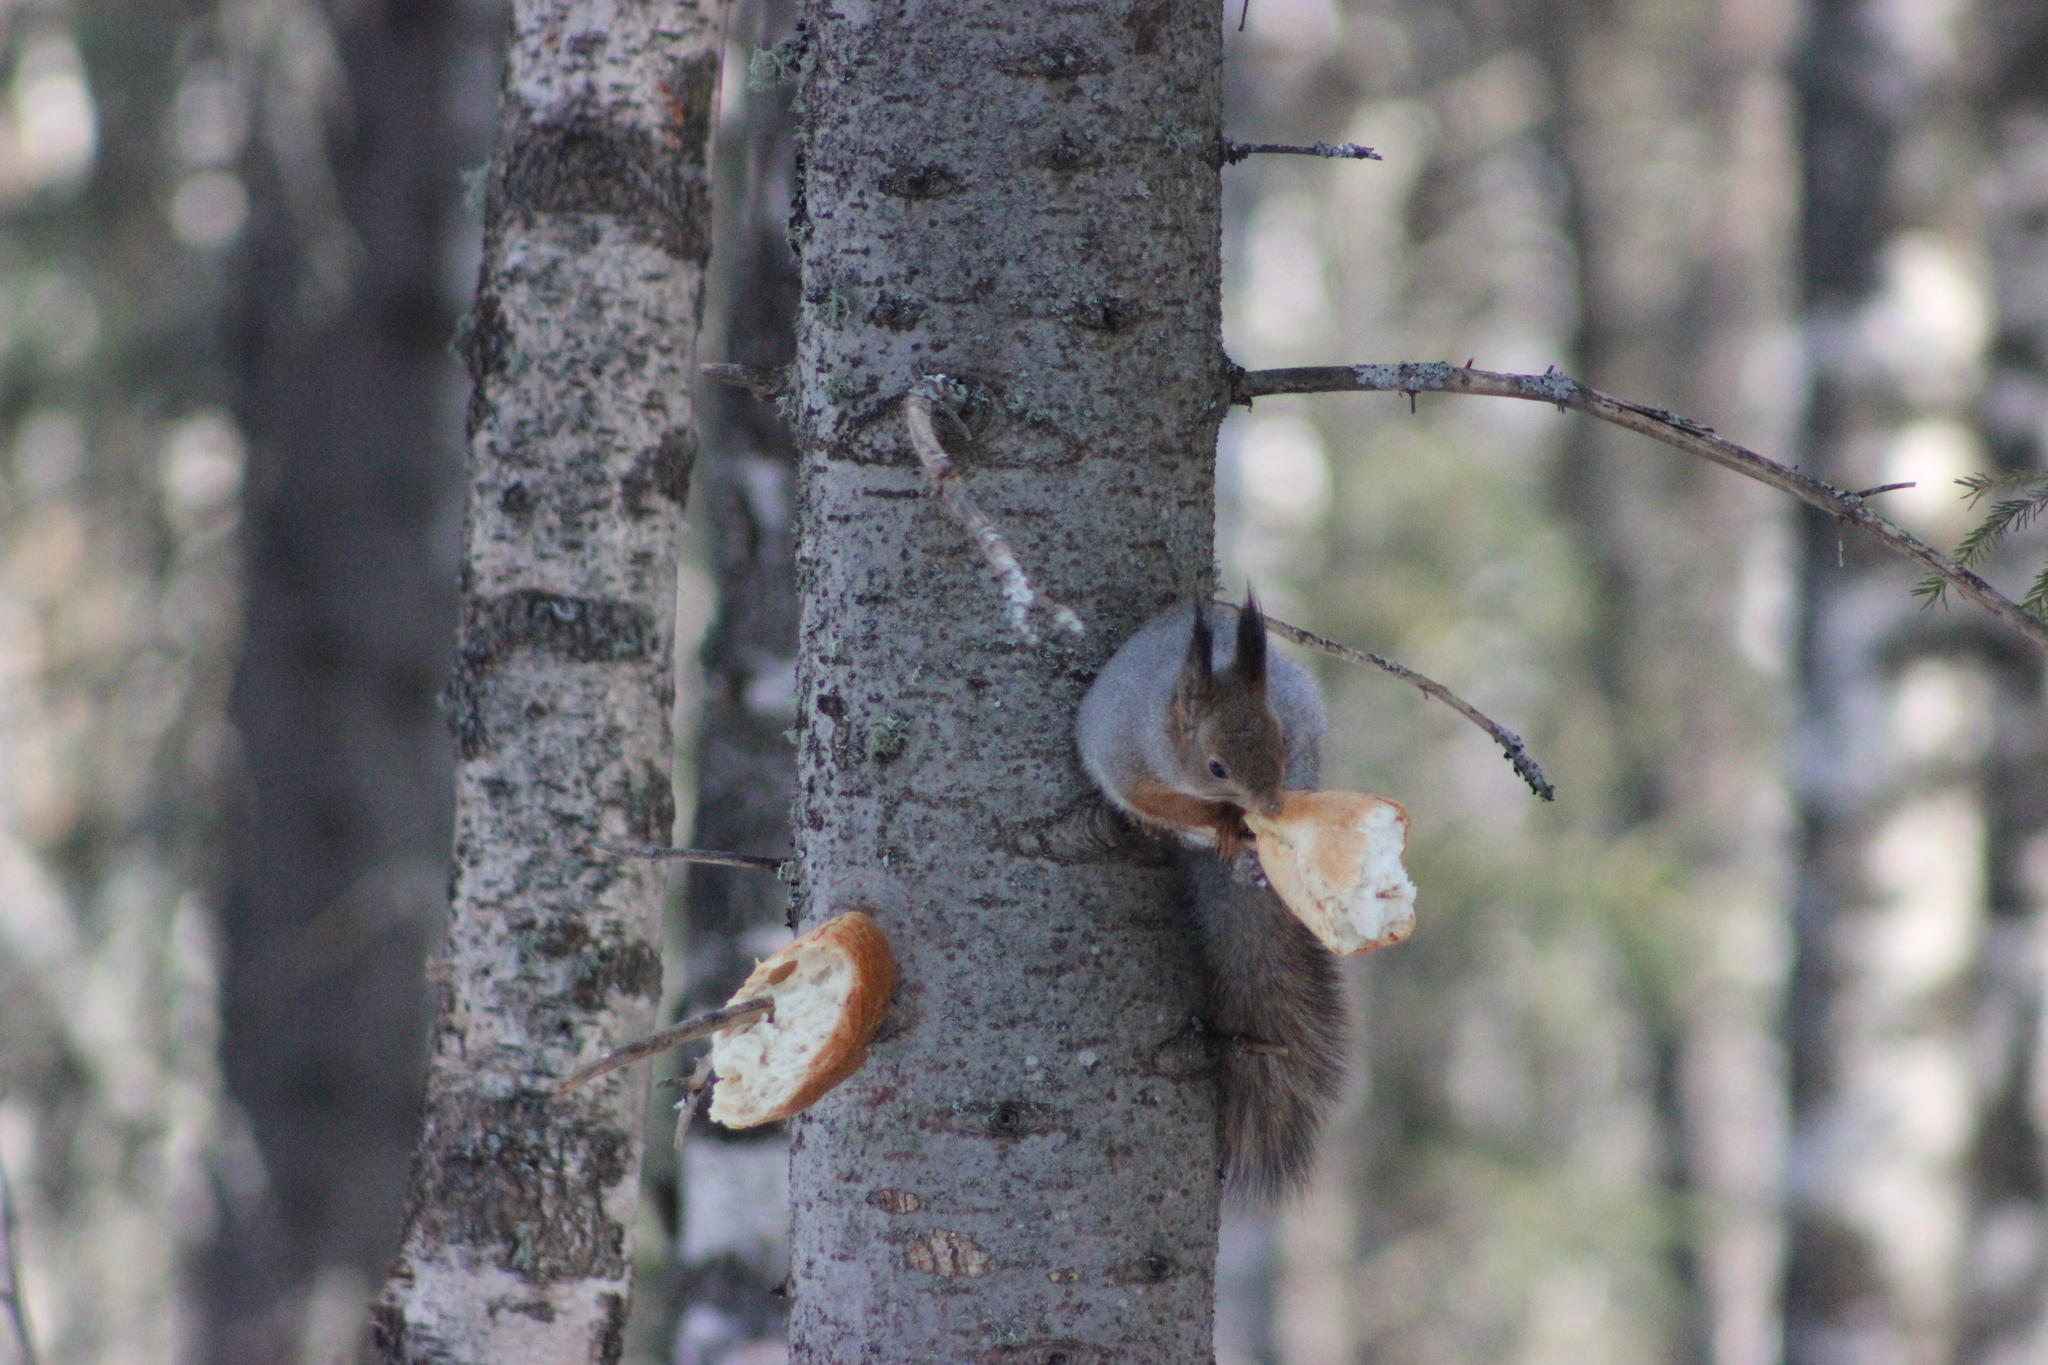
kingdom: Animalia
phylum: Chordata
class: Mammalia
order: Rodentia
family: Sciuridae
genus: Sciurus
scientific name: Sciurus vulgaris
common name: Eurasian red squirrel
